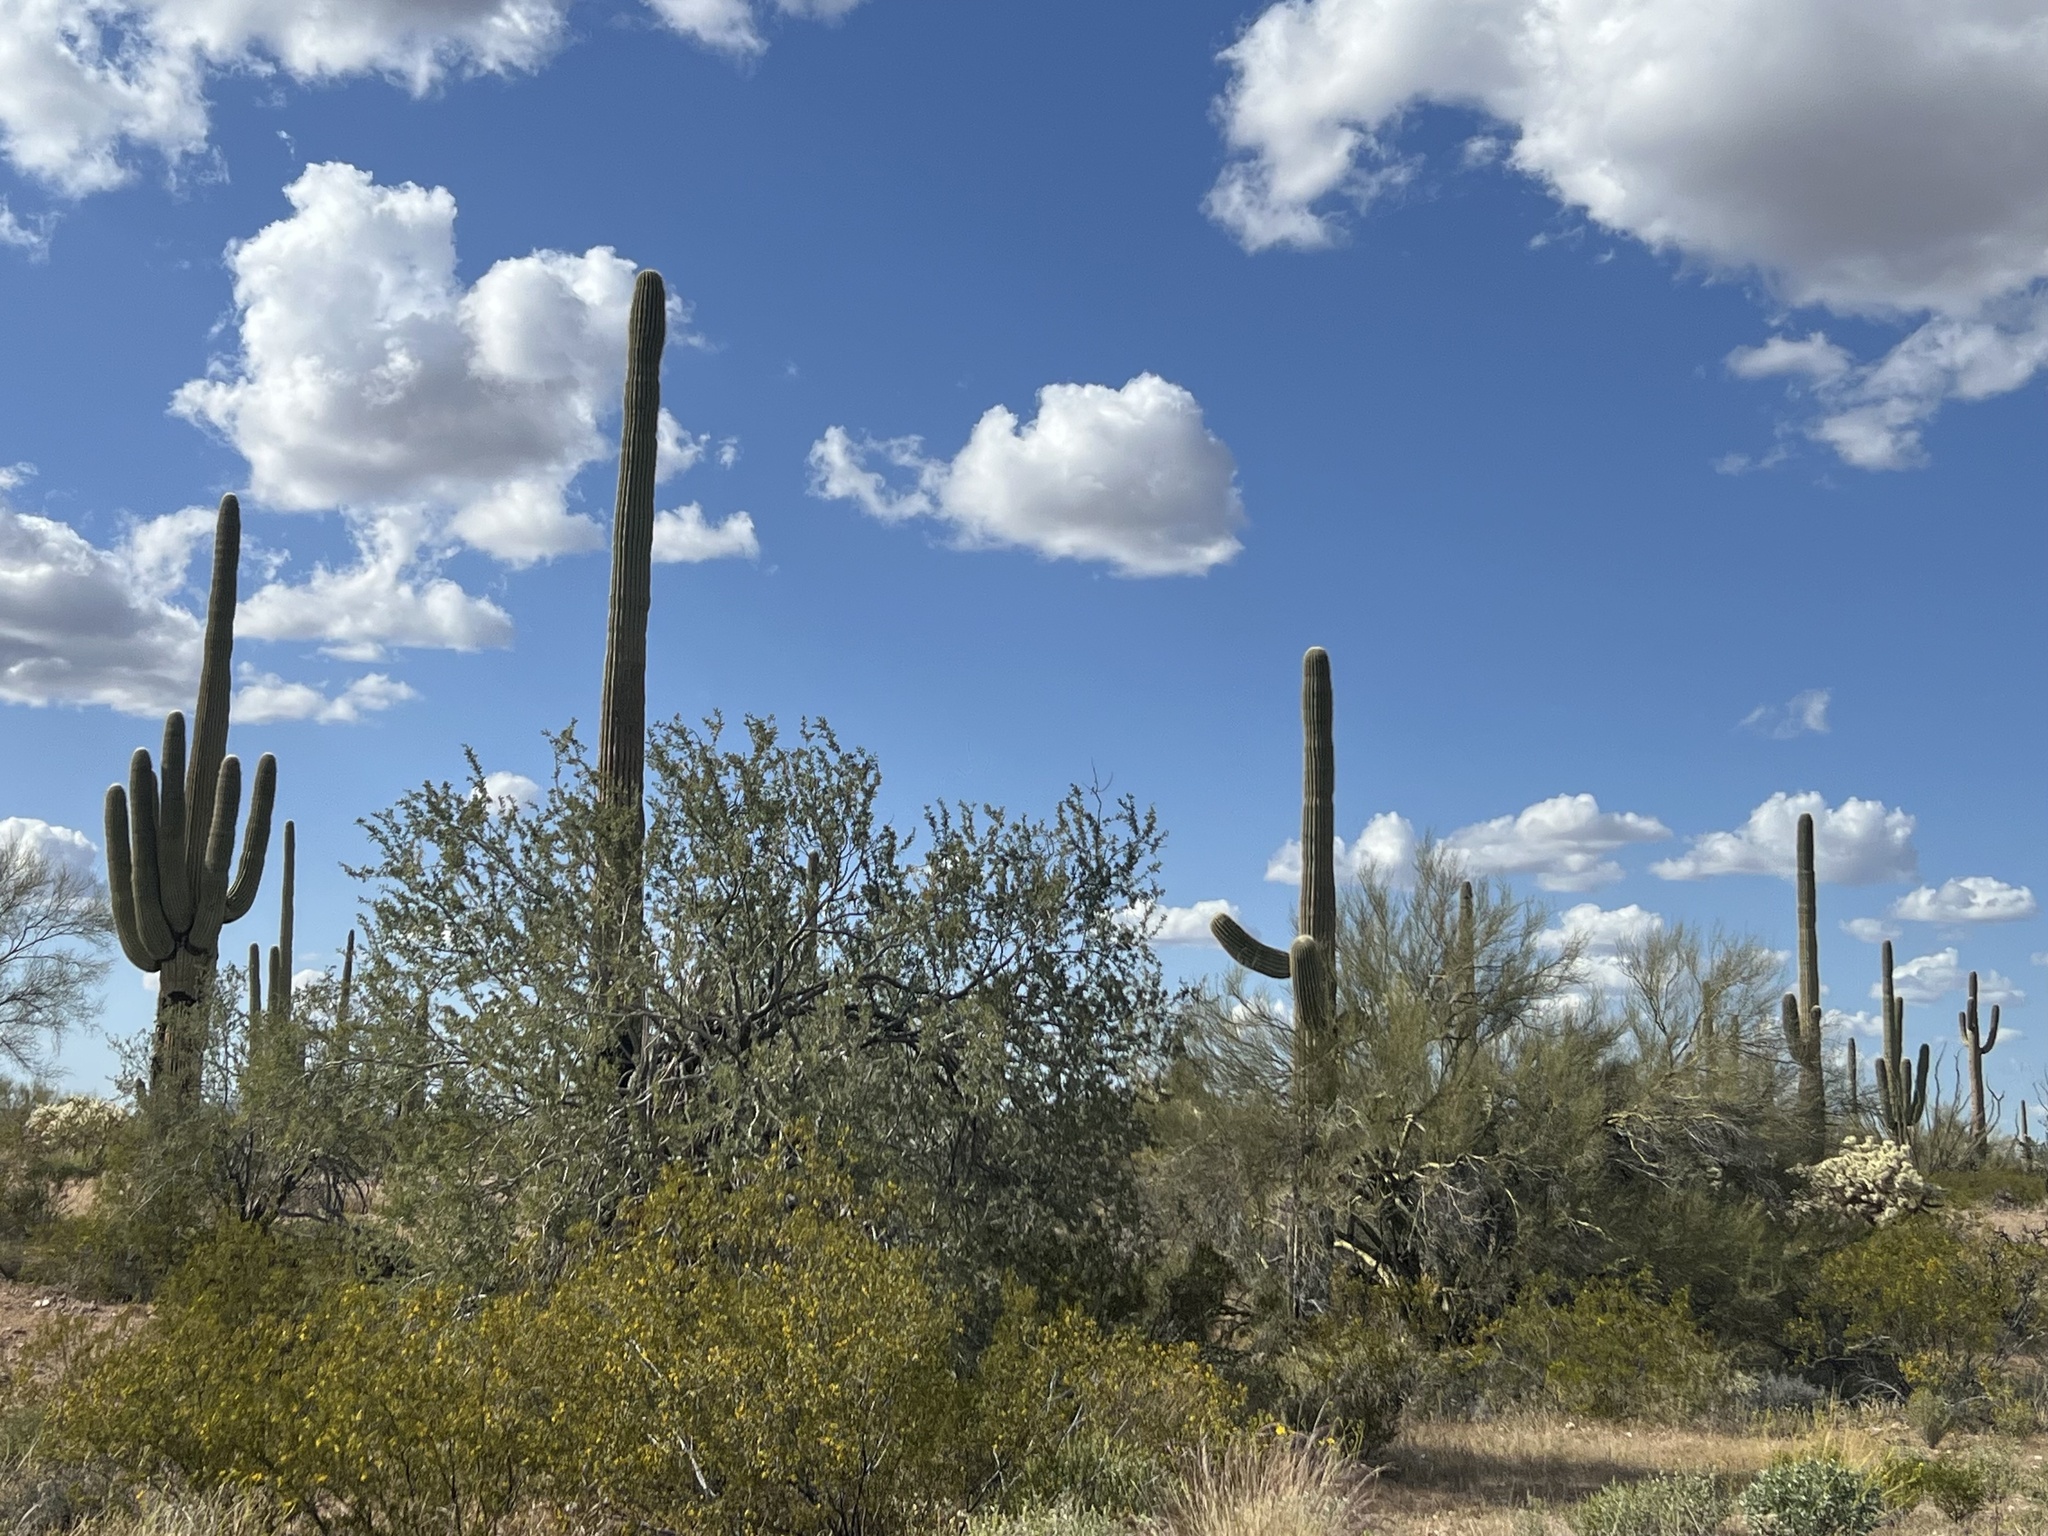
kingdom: Plantae
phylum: Tracheophyta
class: Magnoliopsida
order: Caryophyllales
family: Cactaceae
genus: Carnegiea
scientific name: Carnegiea gigantea
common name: Saguaro
